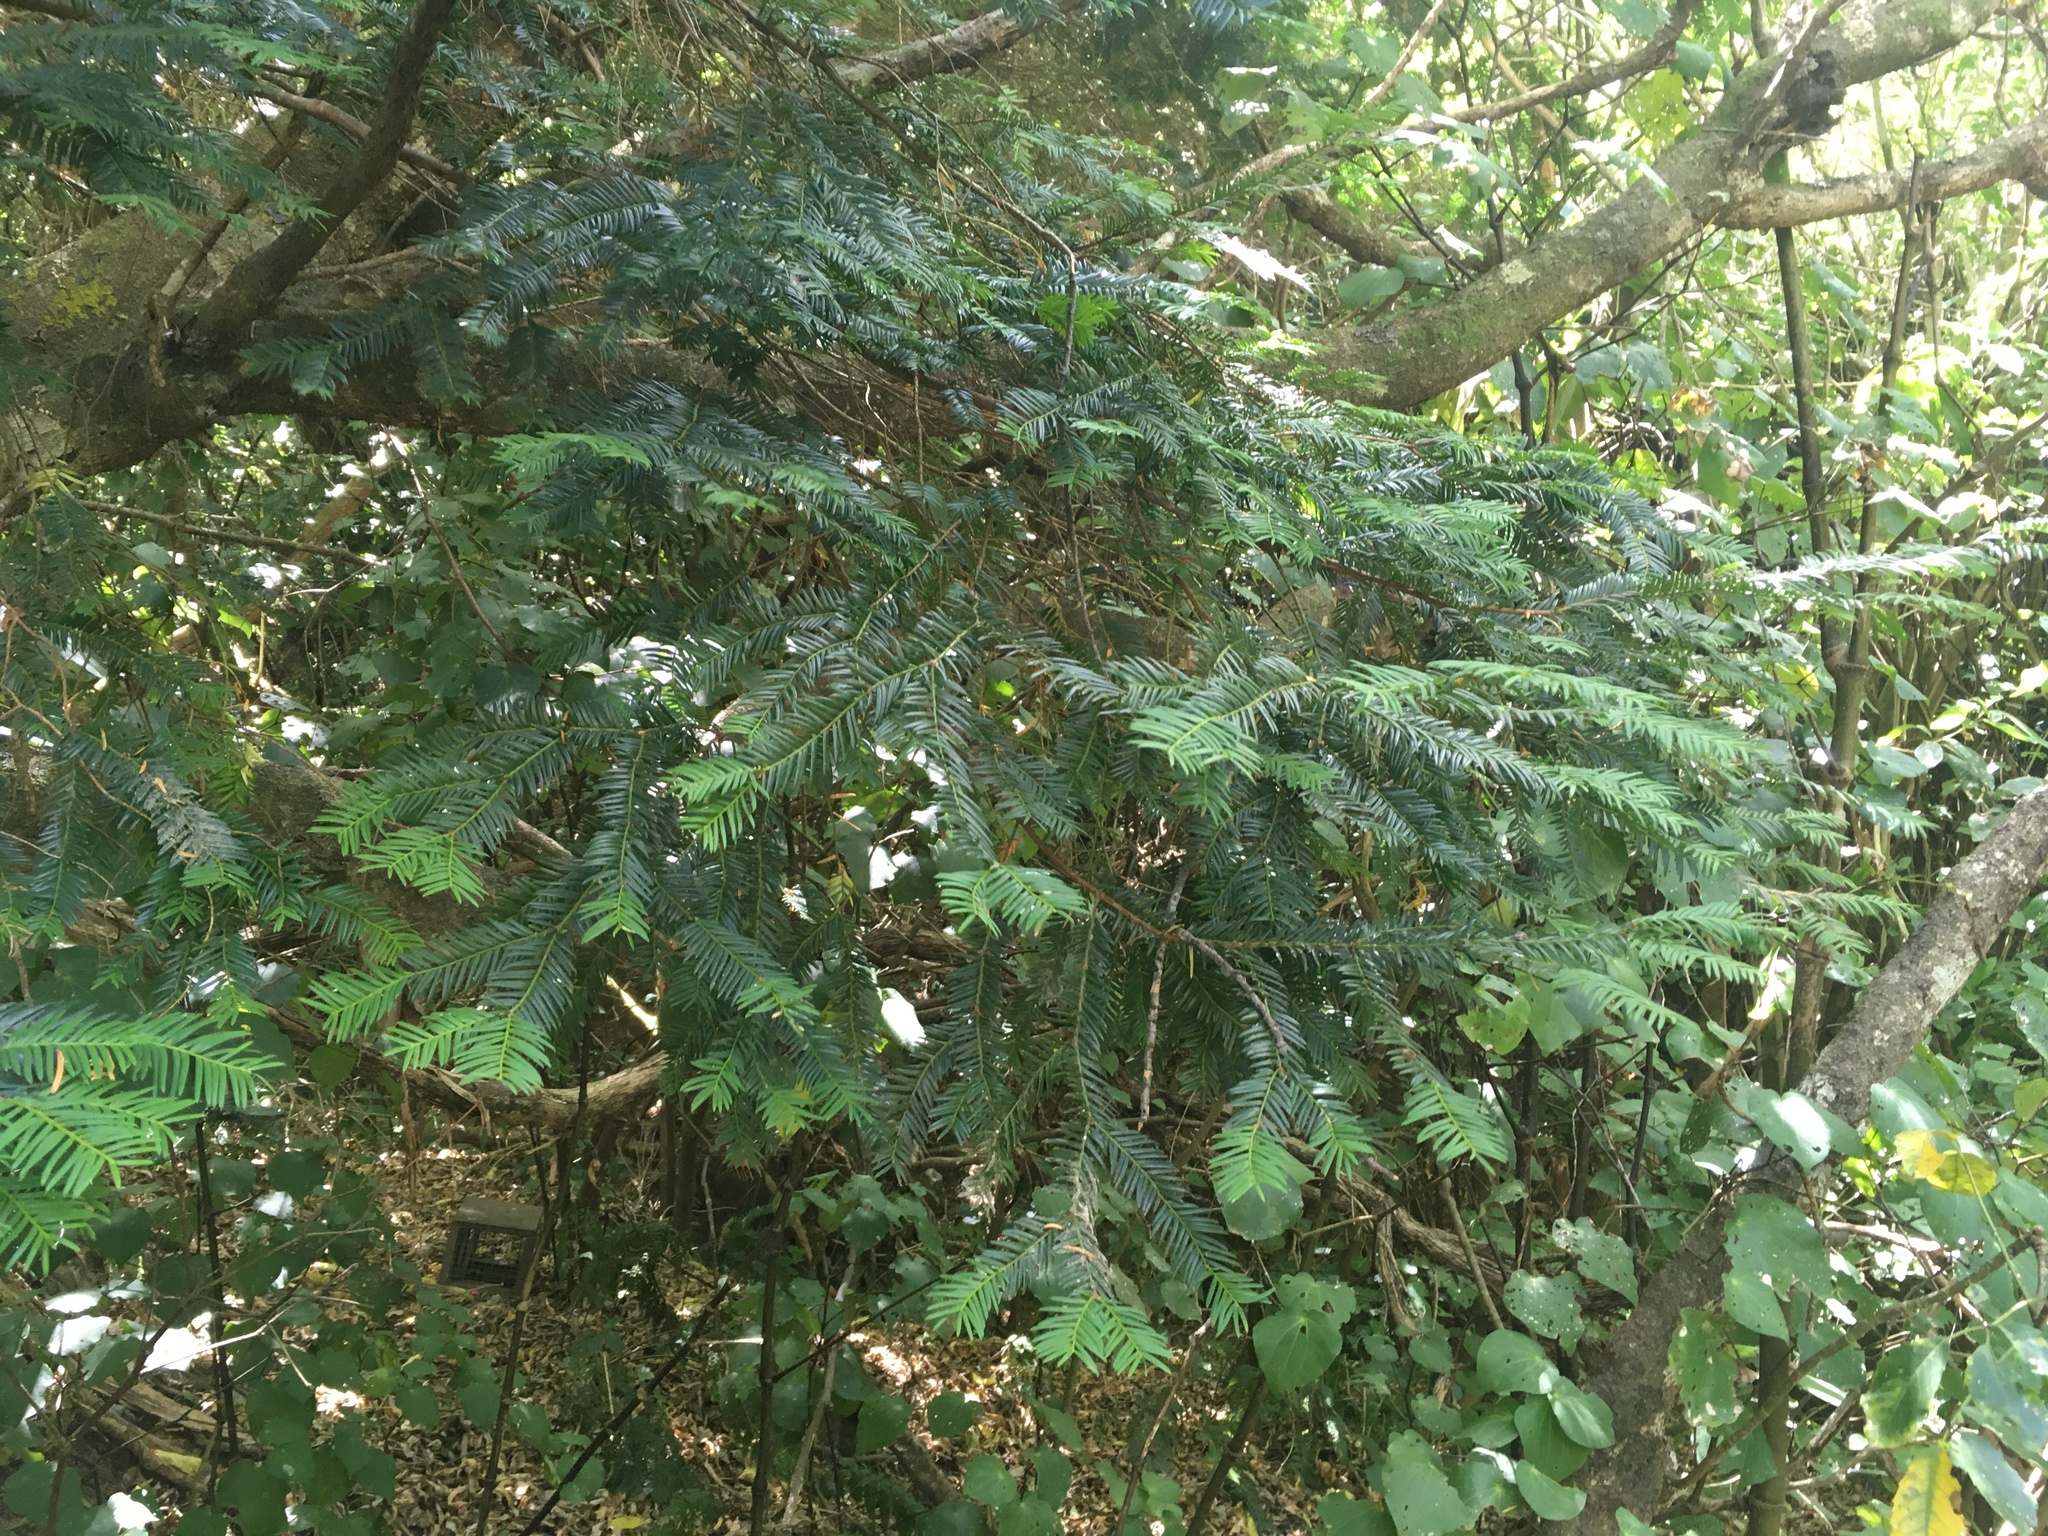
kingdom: Plantae
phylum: Tracheophyta
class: Pinopsida
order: Pinales
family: Podocarpaceae
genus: Prumnopitys
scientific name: Prumnopitys ferruginea
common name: Brown pine
